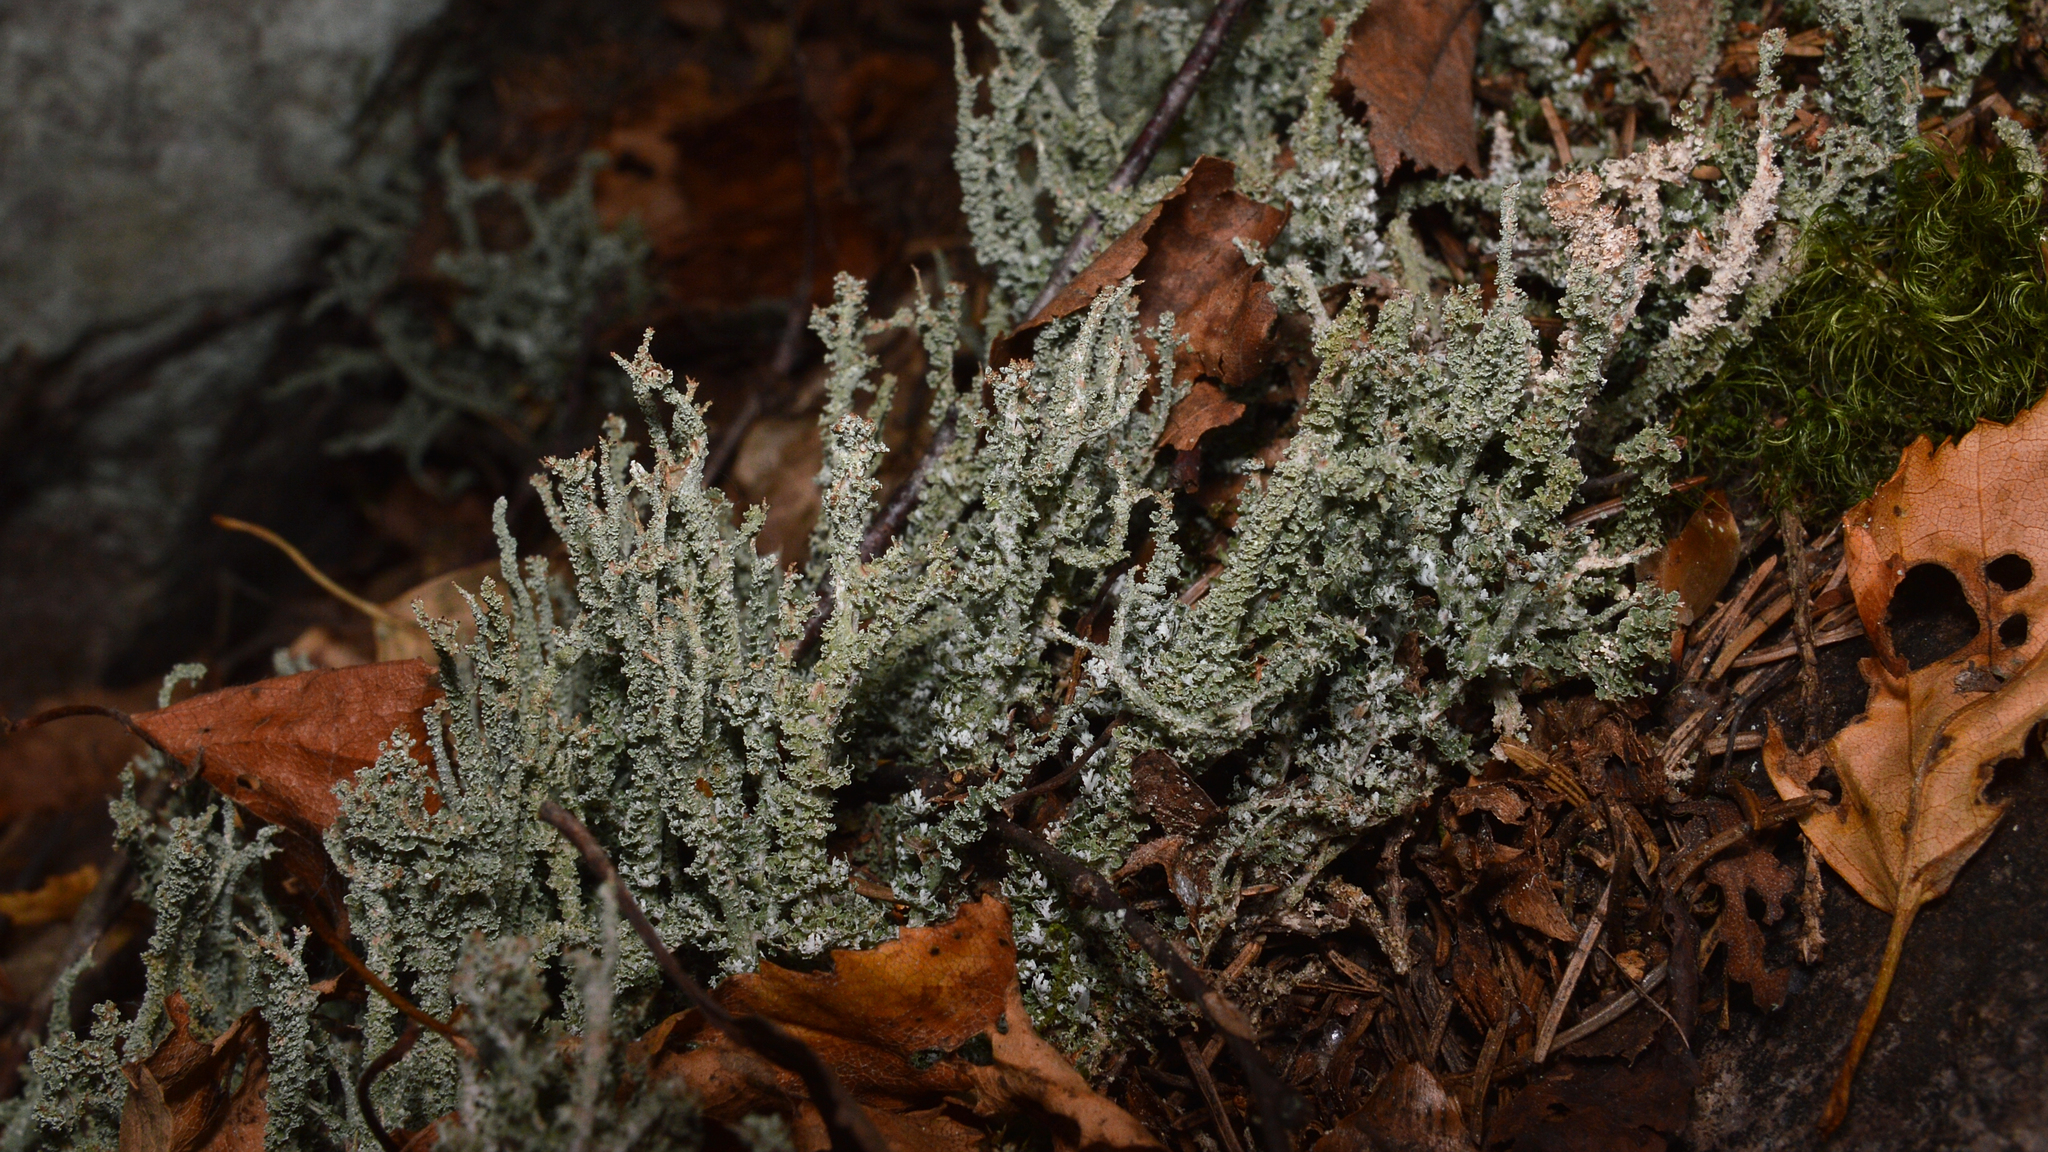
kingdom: Fungi
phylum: Ascomycota
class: Lecanoromycetes
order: Lecanorales
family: Cladoniaceae
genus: Cladonia
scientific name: Cladonia squamosa
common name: Dragon horn
